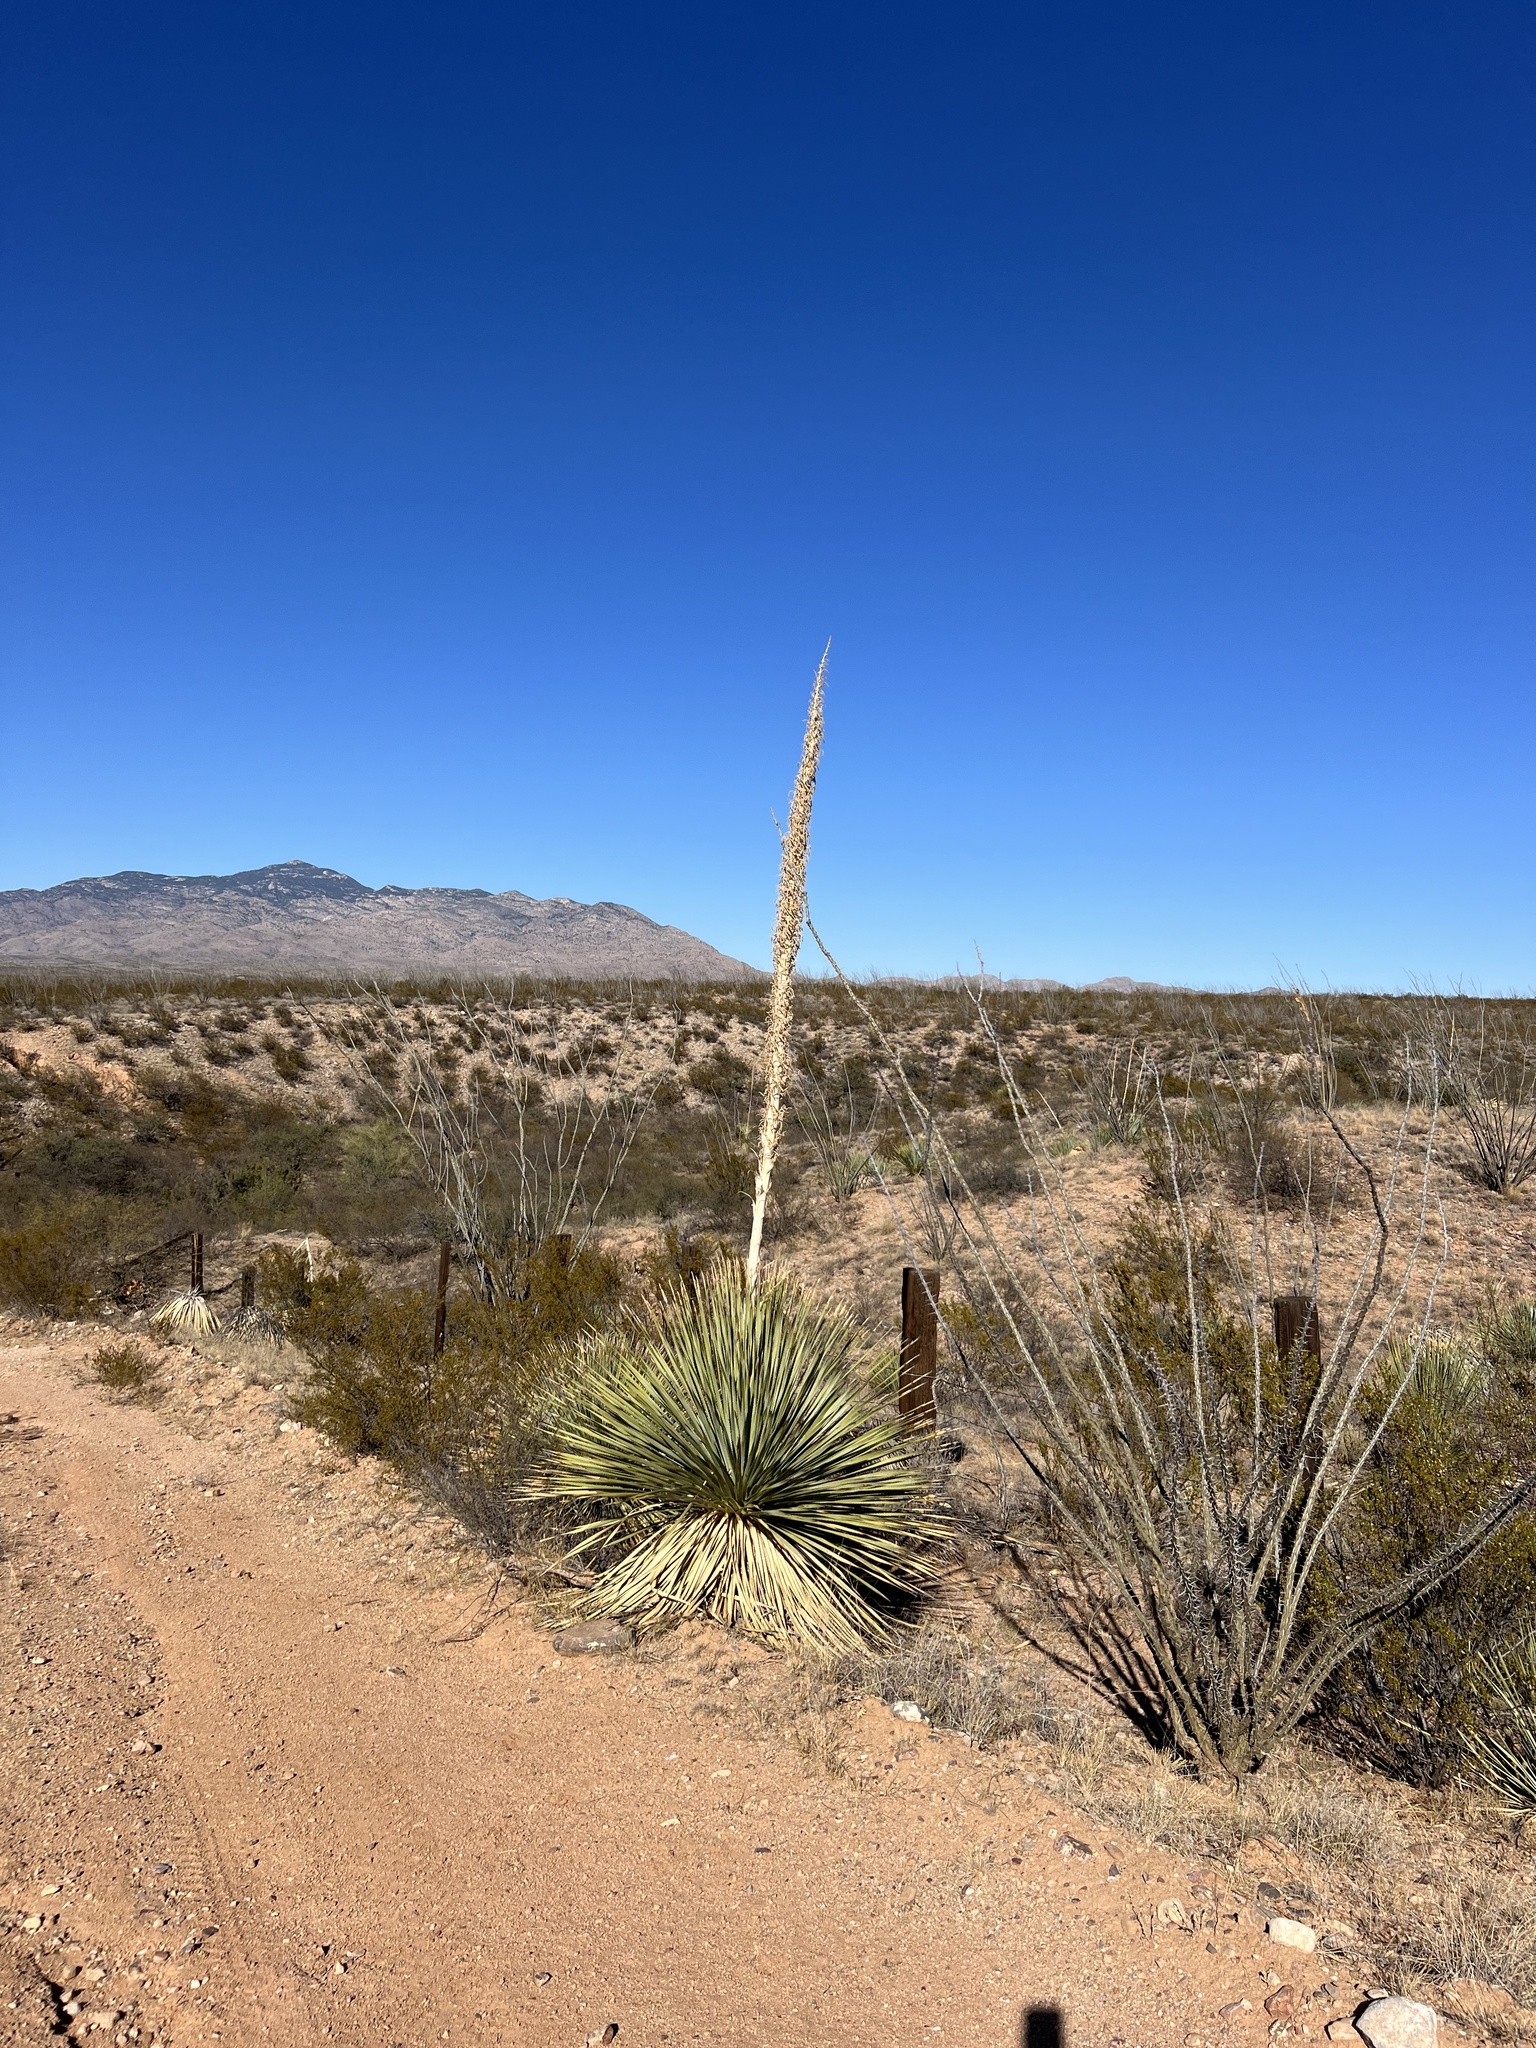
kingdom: Plantae
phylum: Tracheophyta
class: Liliopsida
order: Asparagales
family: Asparagaceae
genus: Dasylirion
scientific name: Dasylirion wheeleri
